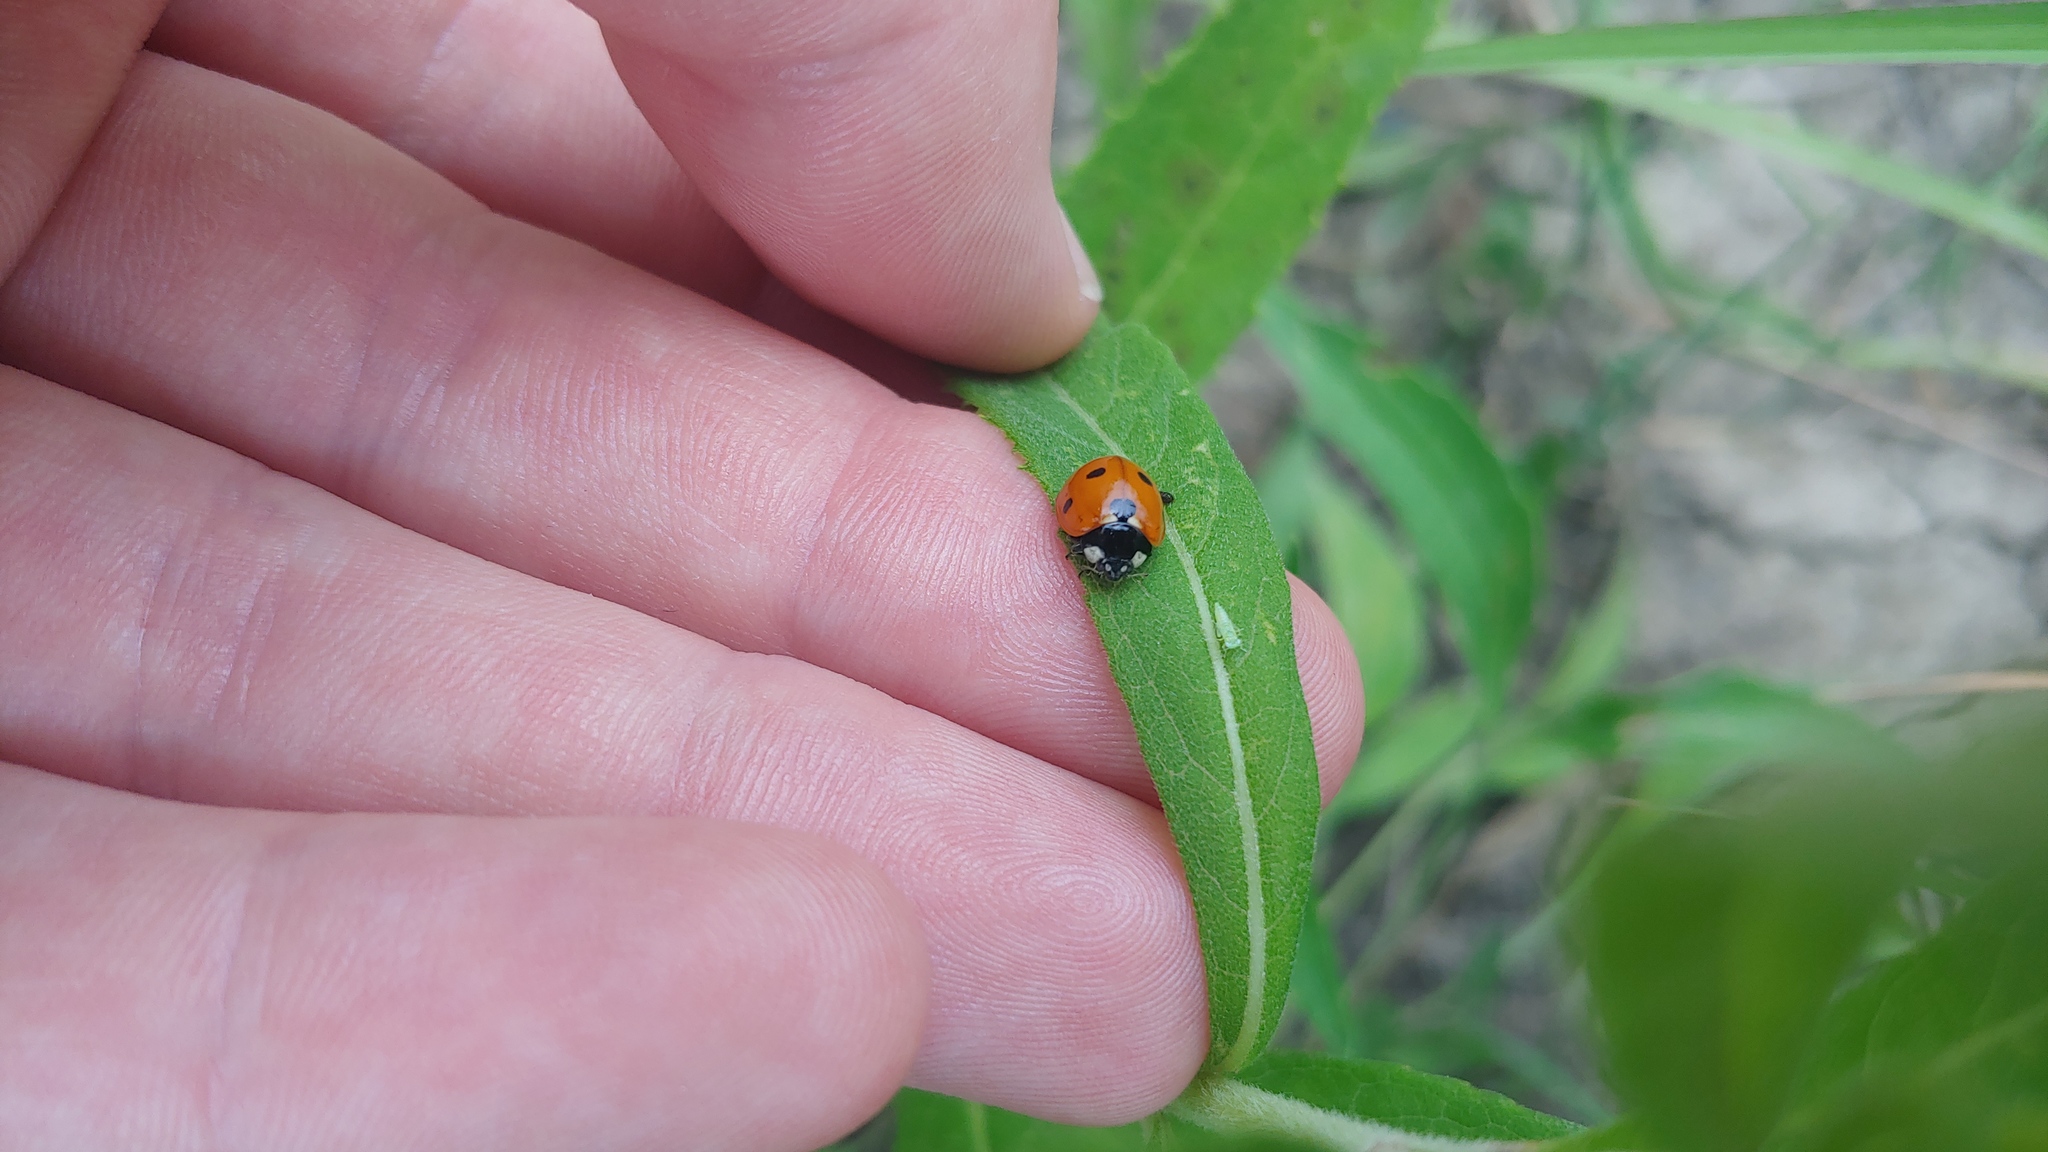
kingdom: Animalia
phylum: Arthropoda
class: Insecta
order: Coleoptera
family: Coccinellidae
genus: Coccinella
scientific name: Coccinella septempunctata
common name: Sevenspotted lady beetle
